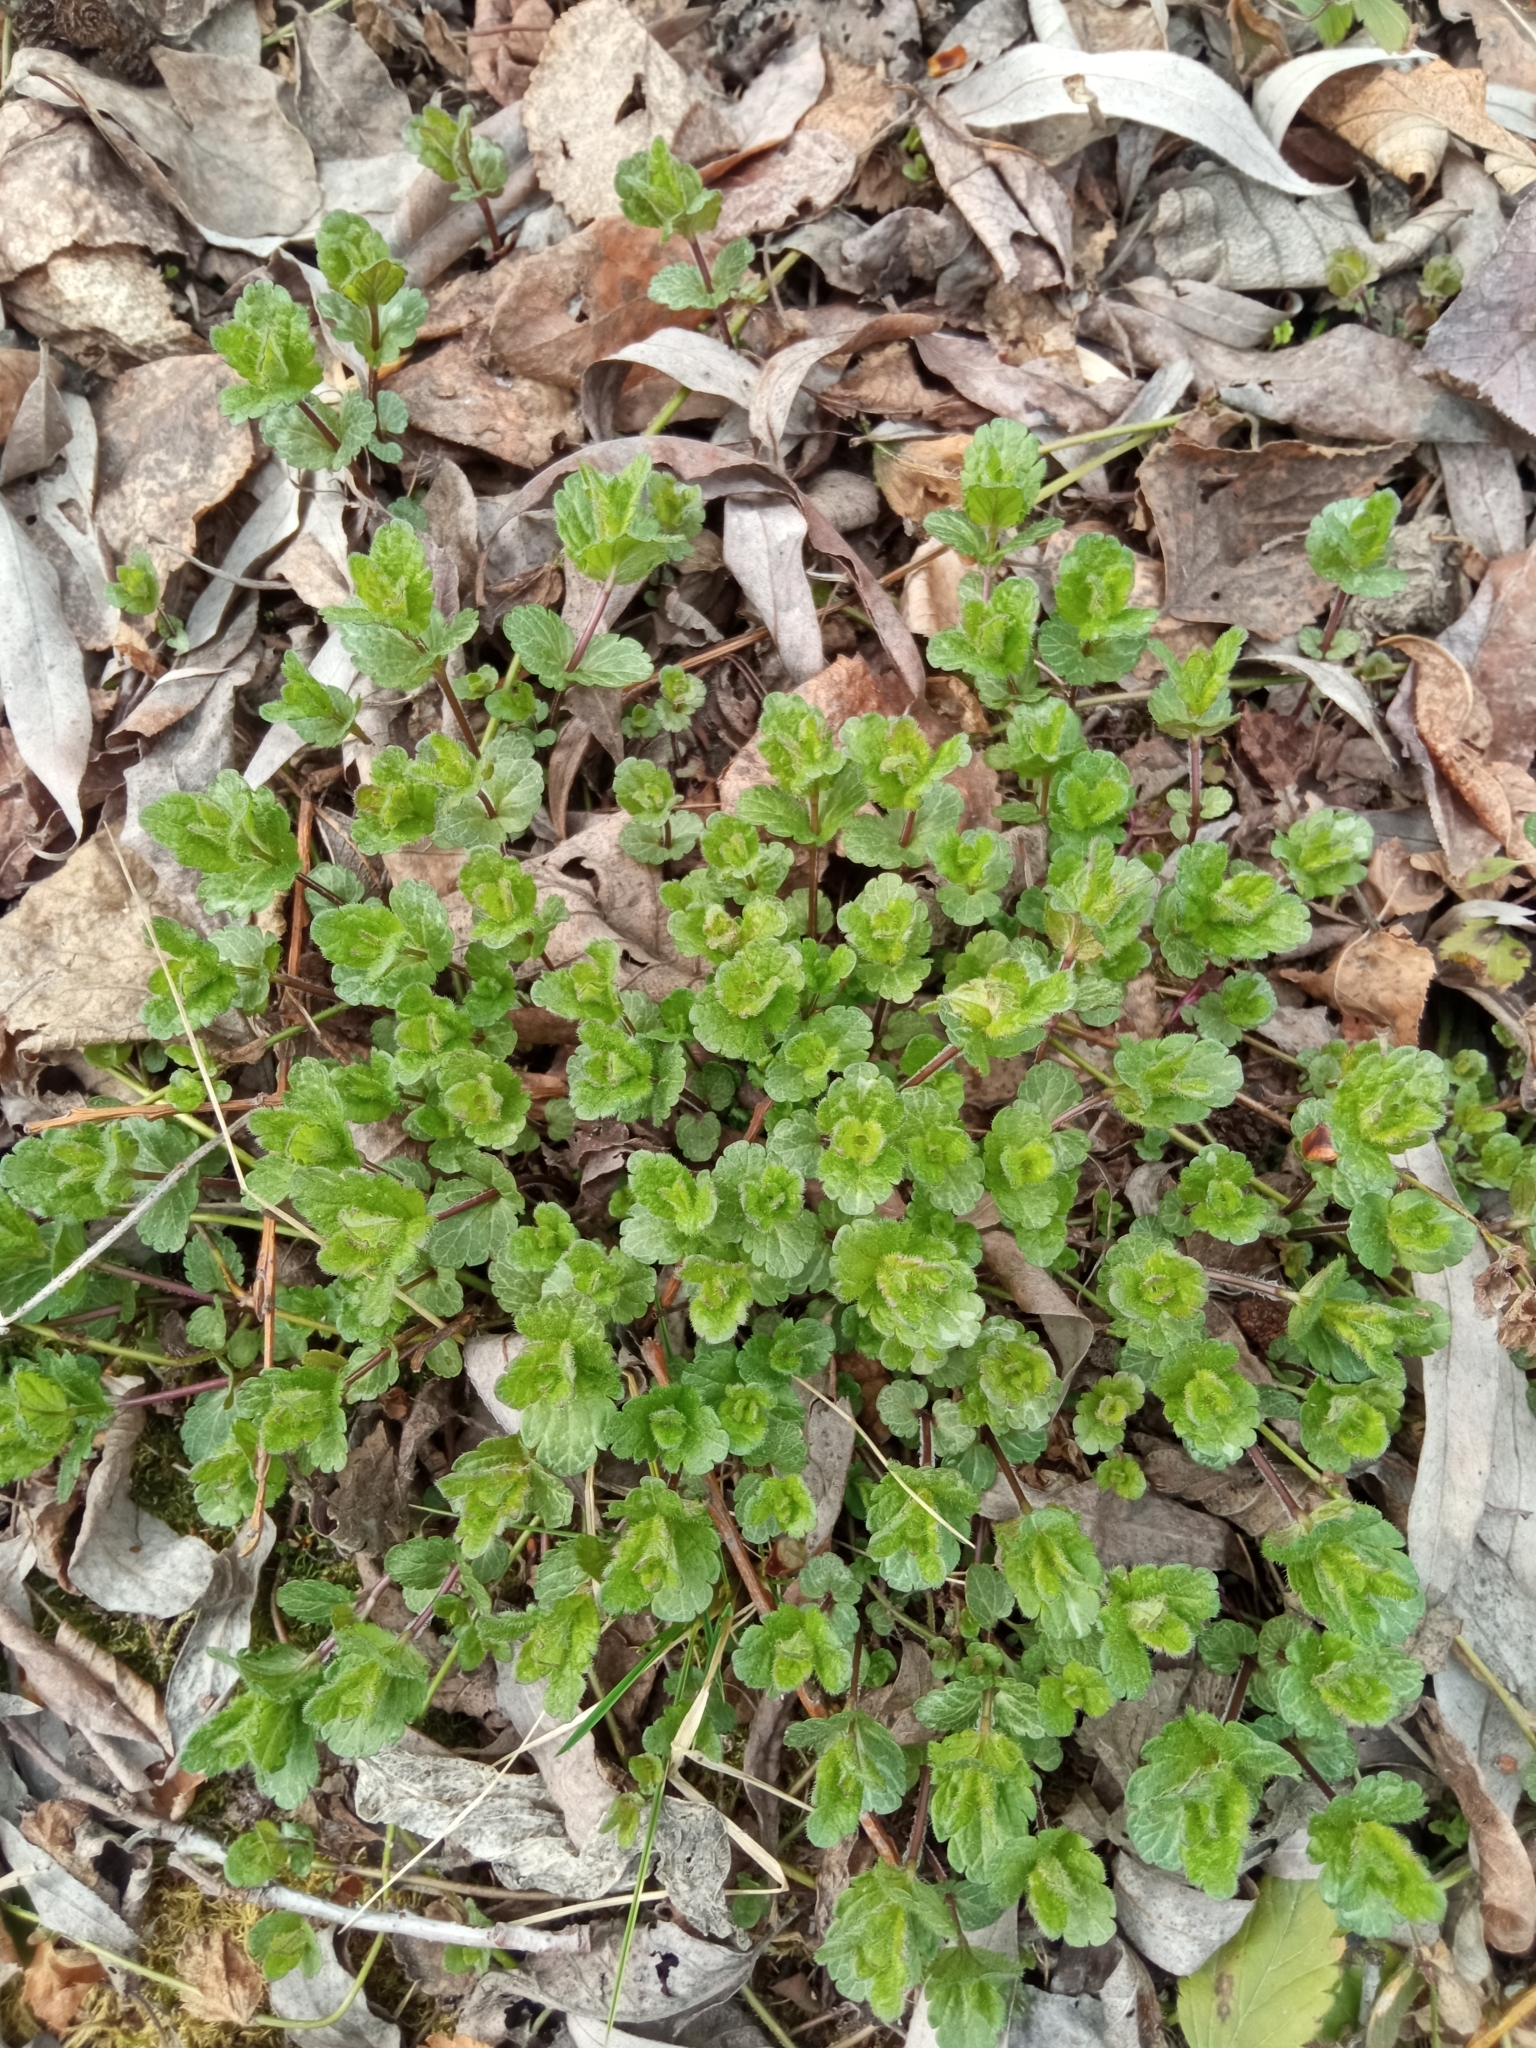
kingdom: Plantae
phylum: Tracheophyta
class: Magnoliopsida
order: Lamiales
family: Plantaginaceae
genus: Veronica
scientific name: Veronica chamaedrys
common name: Germander speedwell
